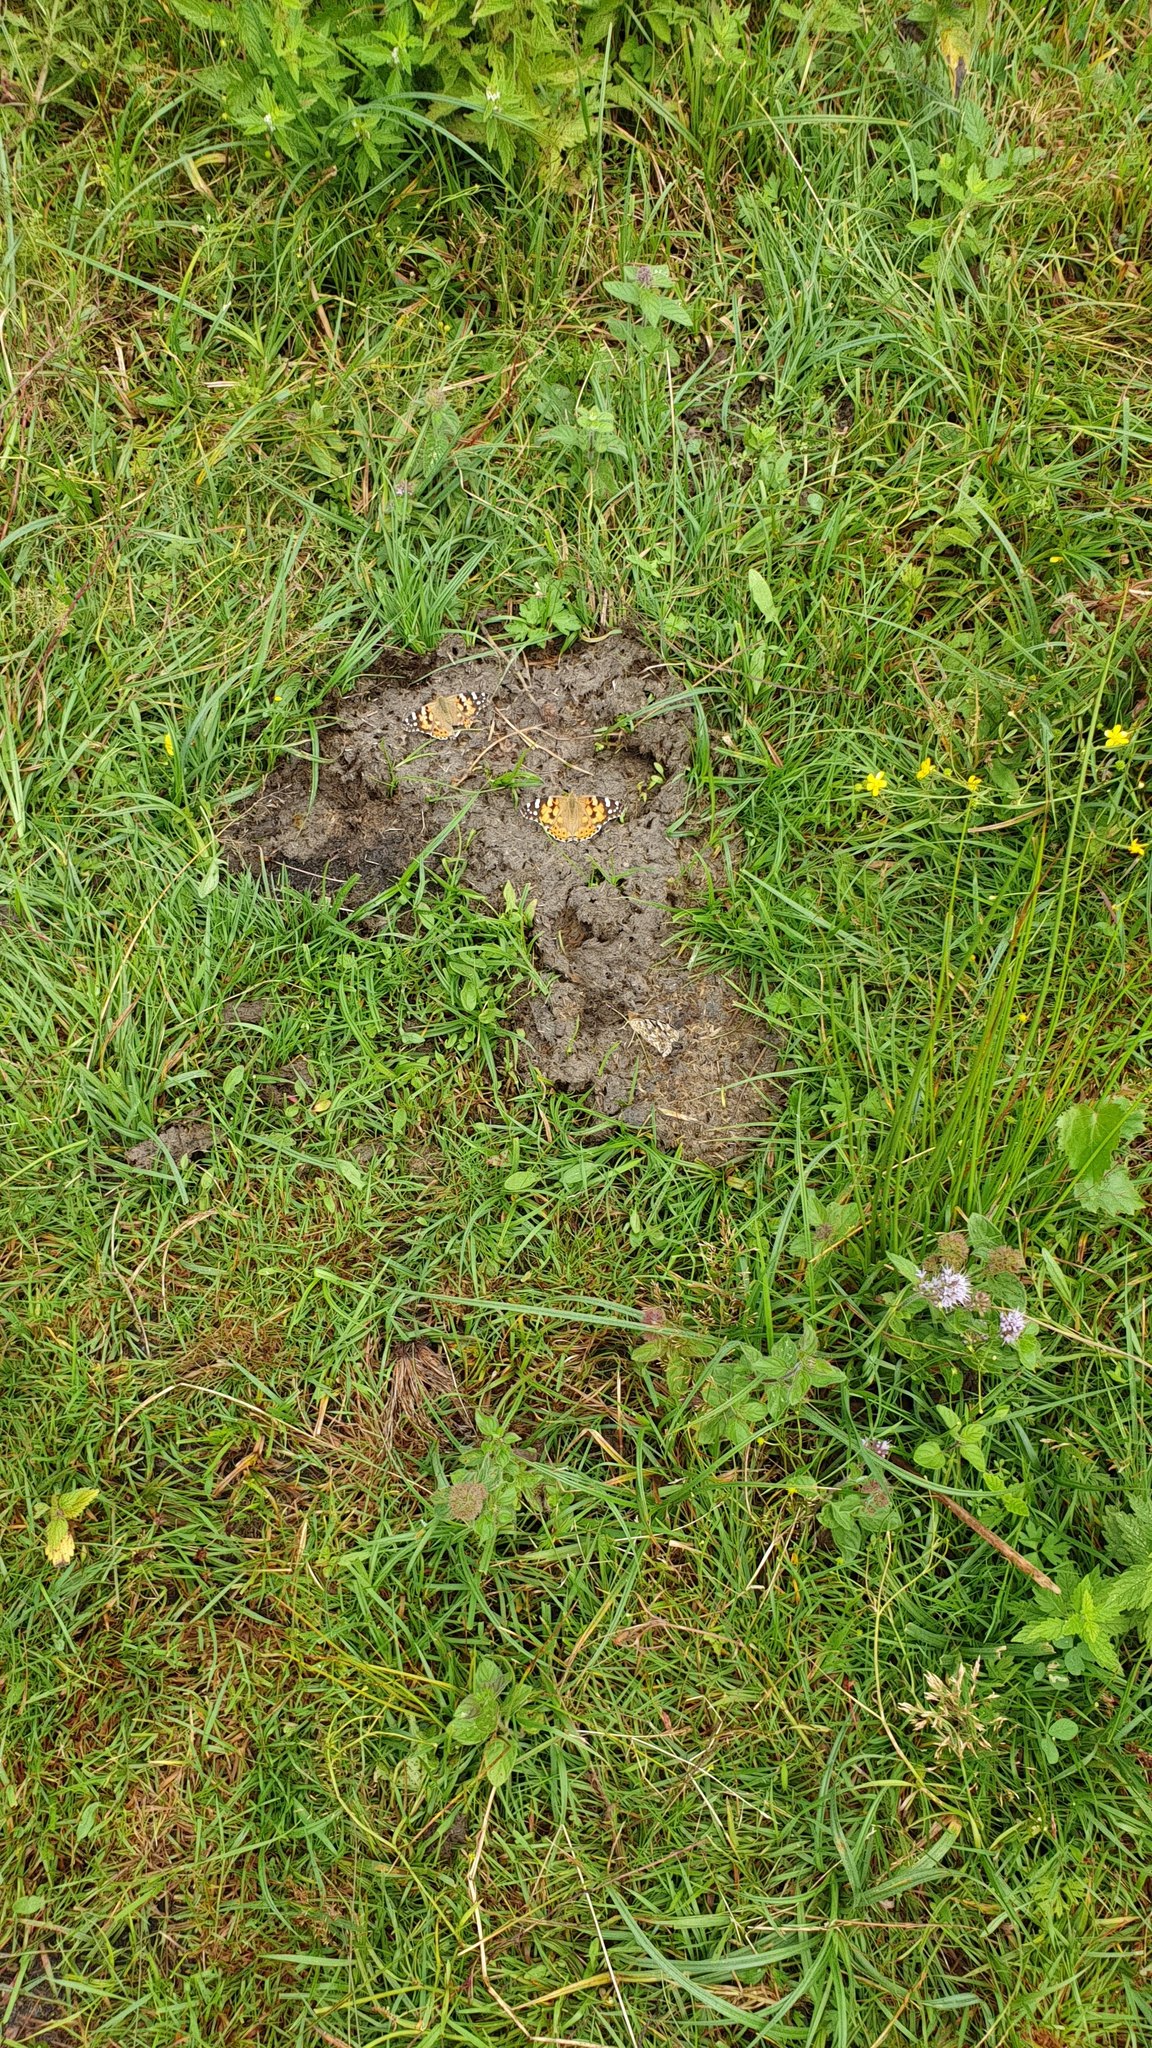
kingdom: Animalia
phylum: Arthropoda
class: Insecta
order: Lepidoptera
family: Nymphalidae
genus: Vanessa
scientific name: Vanessa cardui
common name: Painted lady
